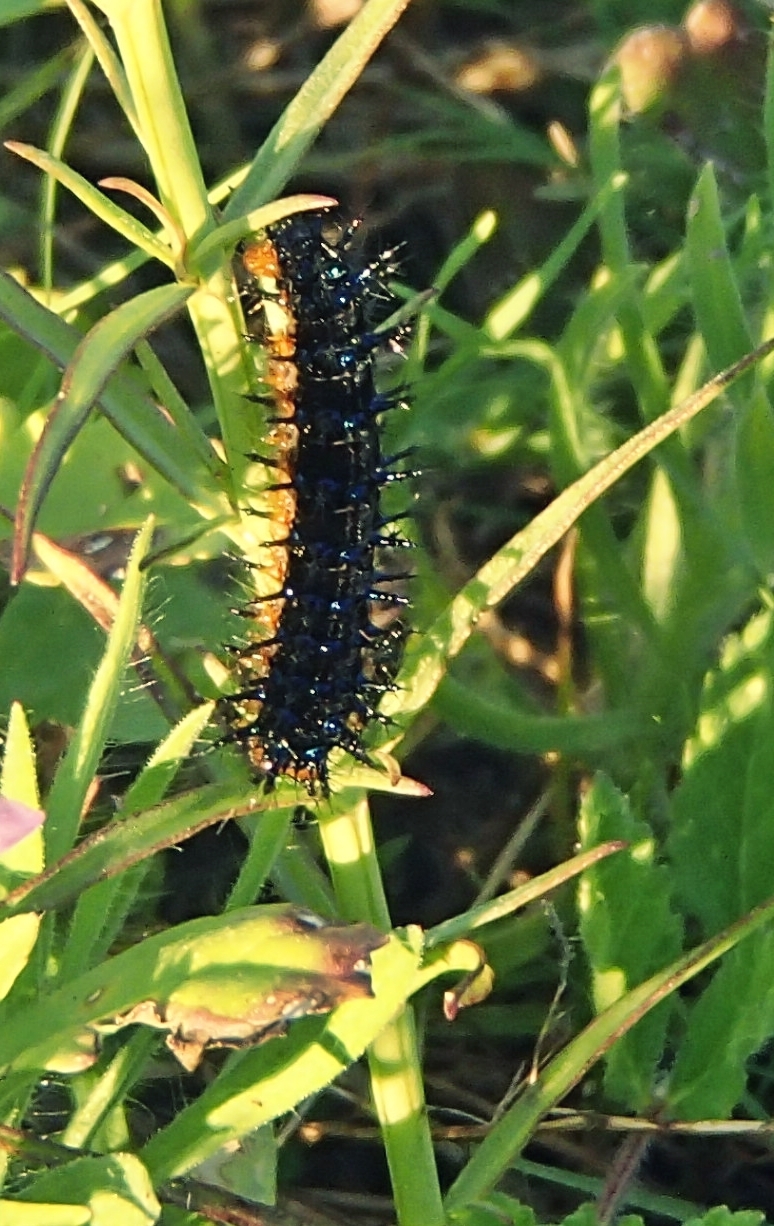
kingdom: Animalia
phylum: Arthropoda
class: Insecta
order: Lepidoptera
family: Nymphalidae
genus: Junonia
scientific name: Junonia lavinia
